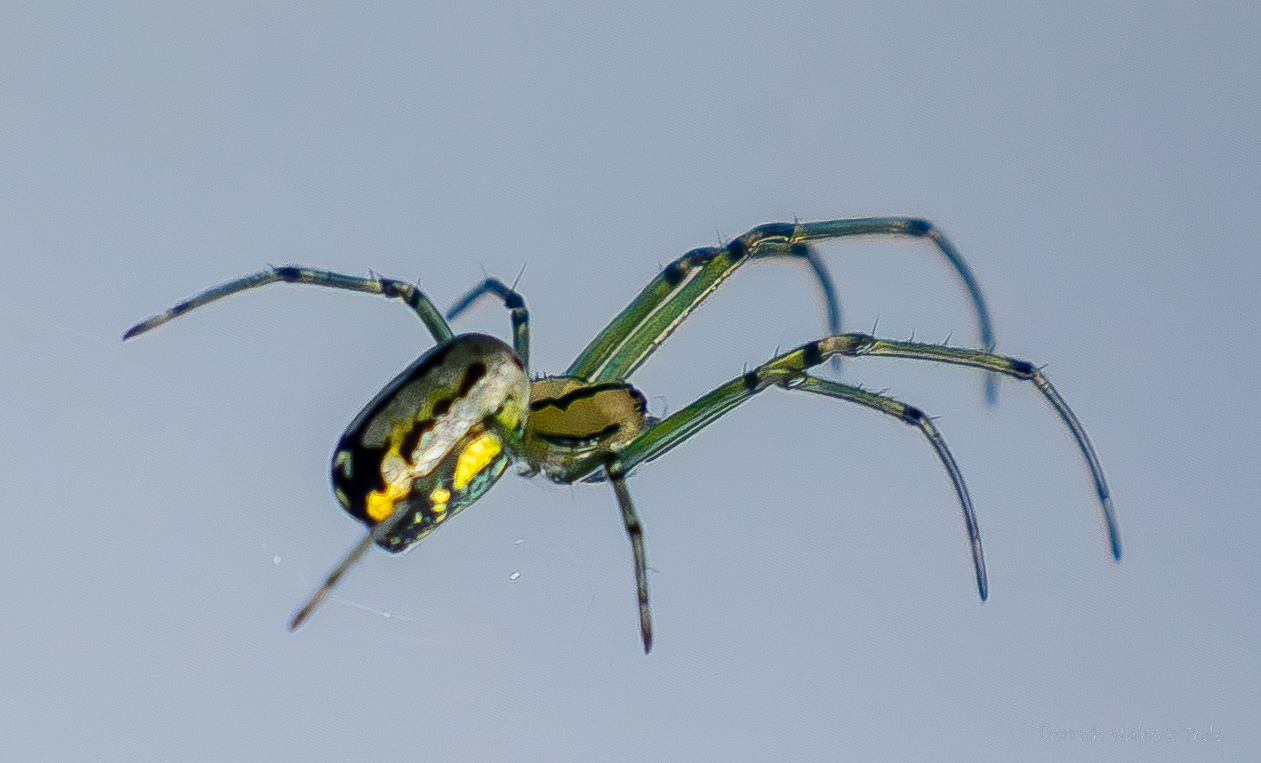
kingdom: Animalia
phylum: Arthropoda
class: Arachnida
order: Araneae
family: Tetragnathidae
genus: Leucauge
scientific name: Leucauge venusta
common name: Longjawed orb weavers
